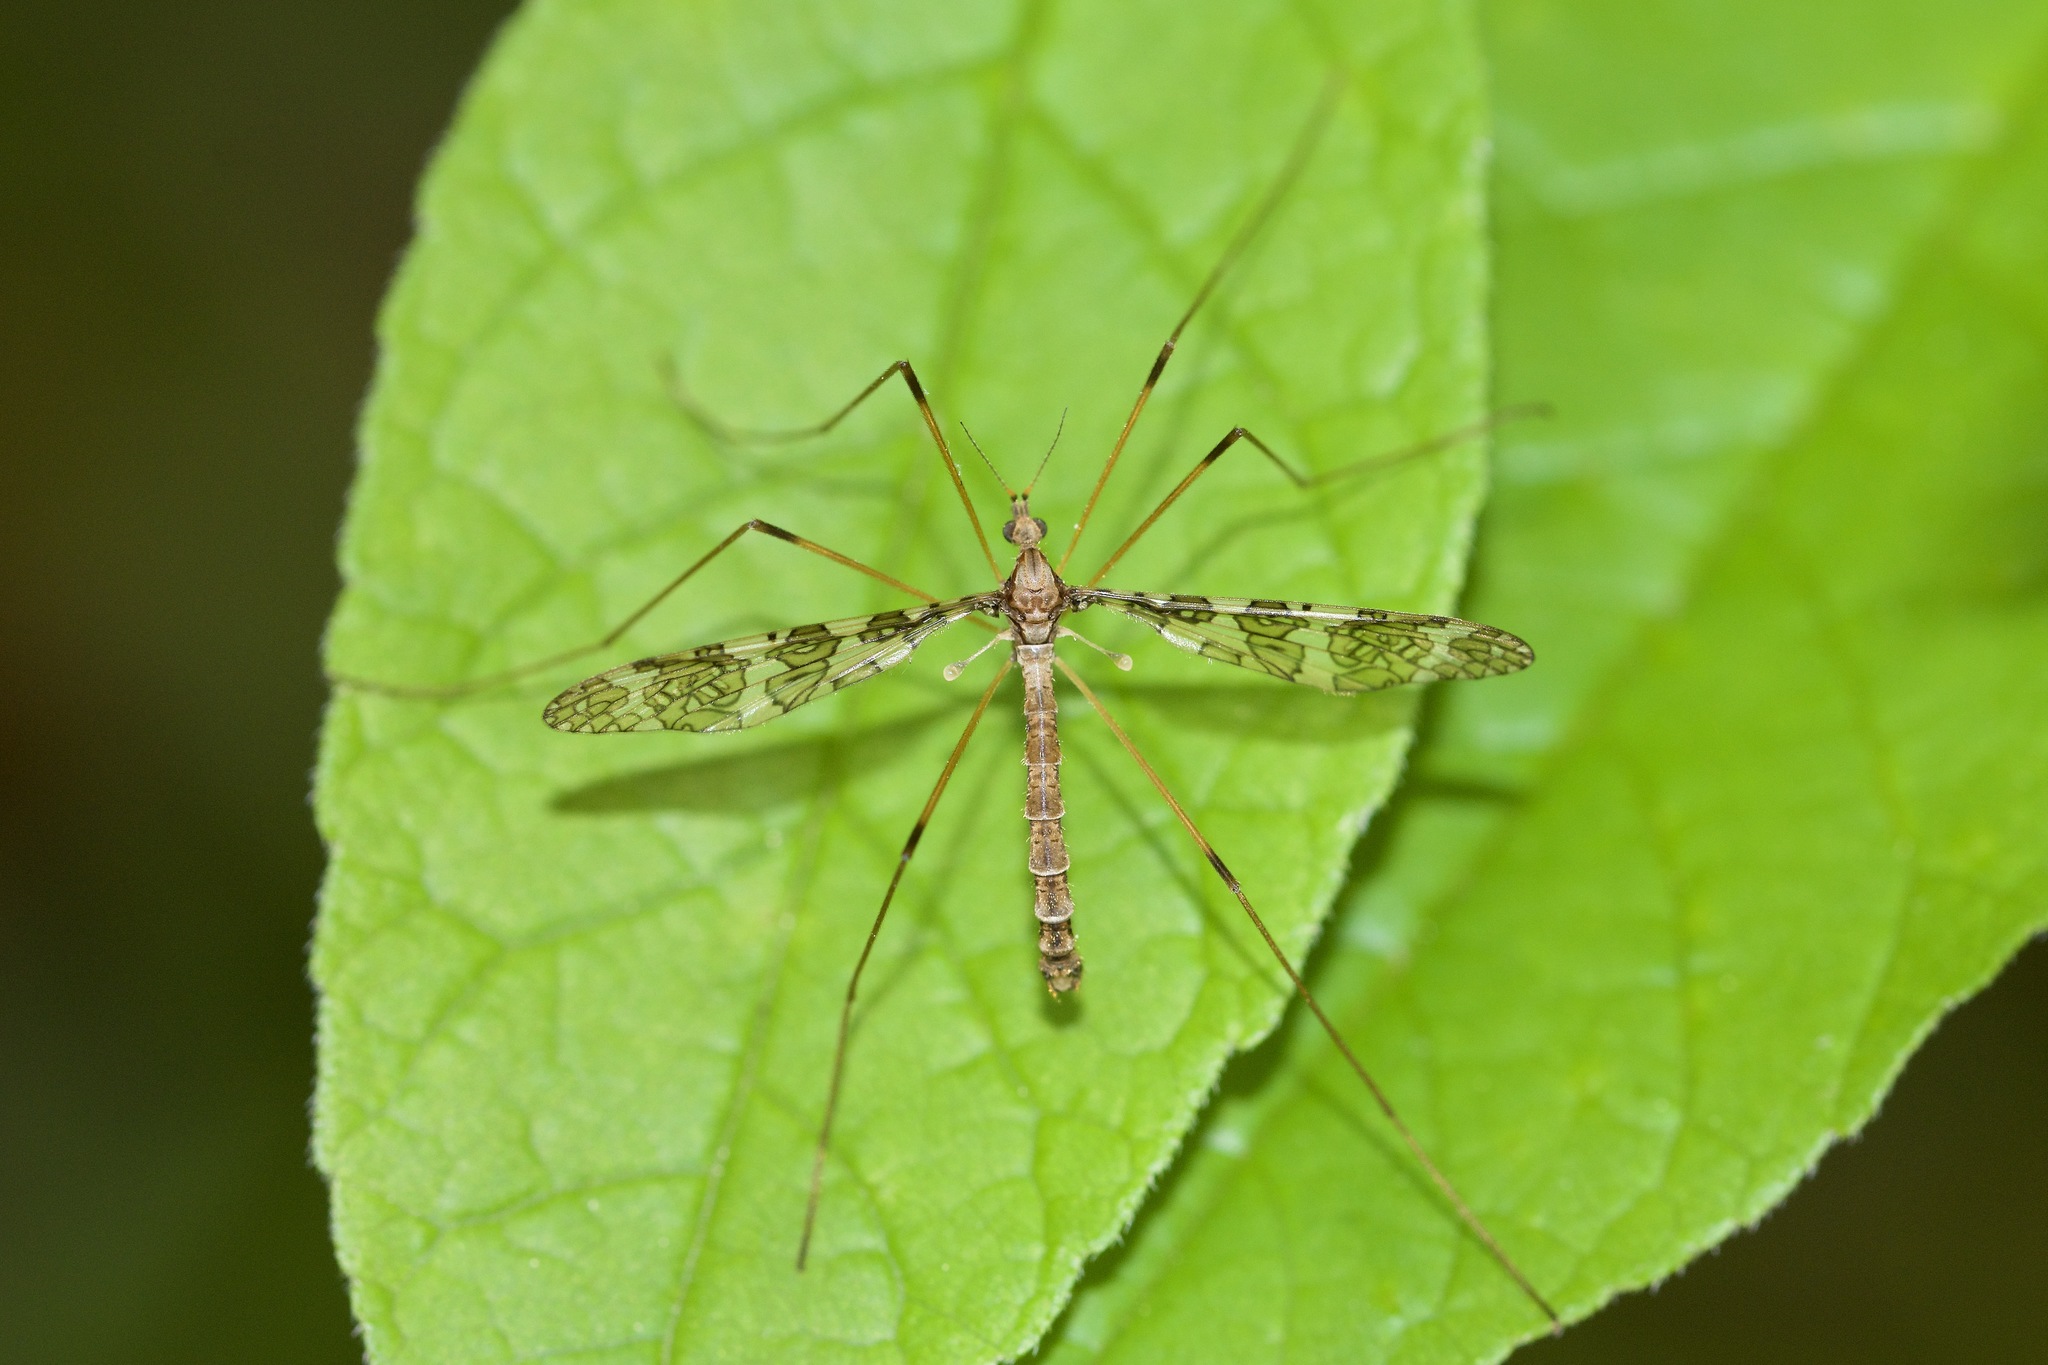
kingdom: Animalia
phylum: Arthropoda
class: Insecta
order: Diptera
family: Limoniidae
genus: Epiphragma
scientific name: Epiphragma fasciapenne
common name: Band-winged crane fly
